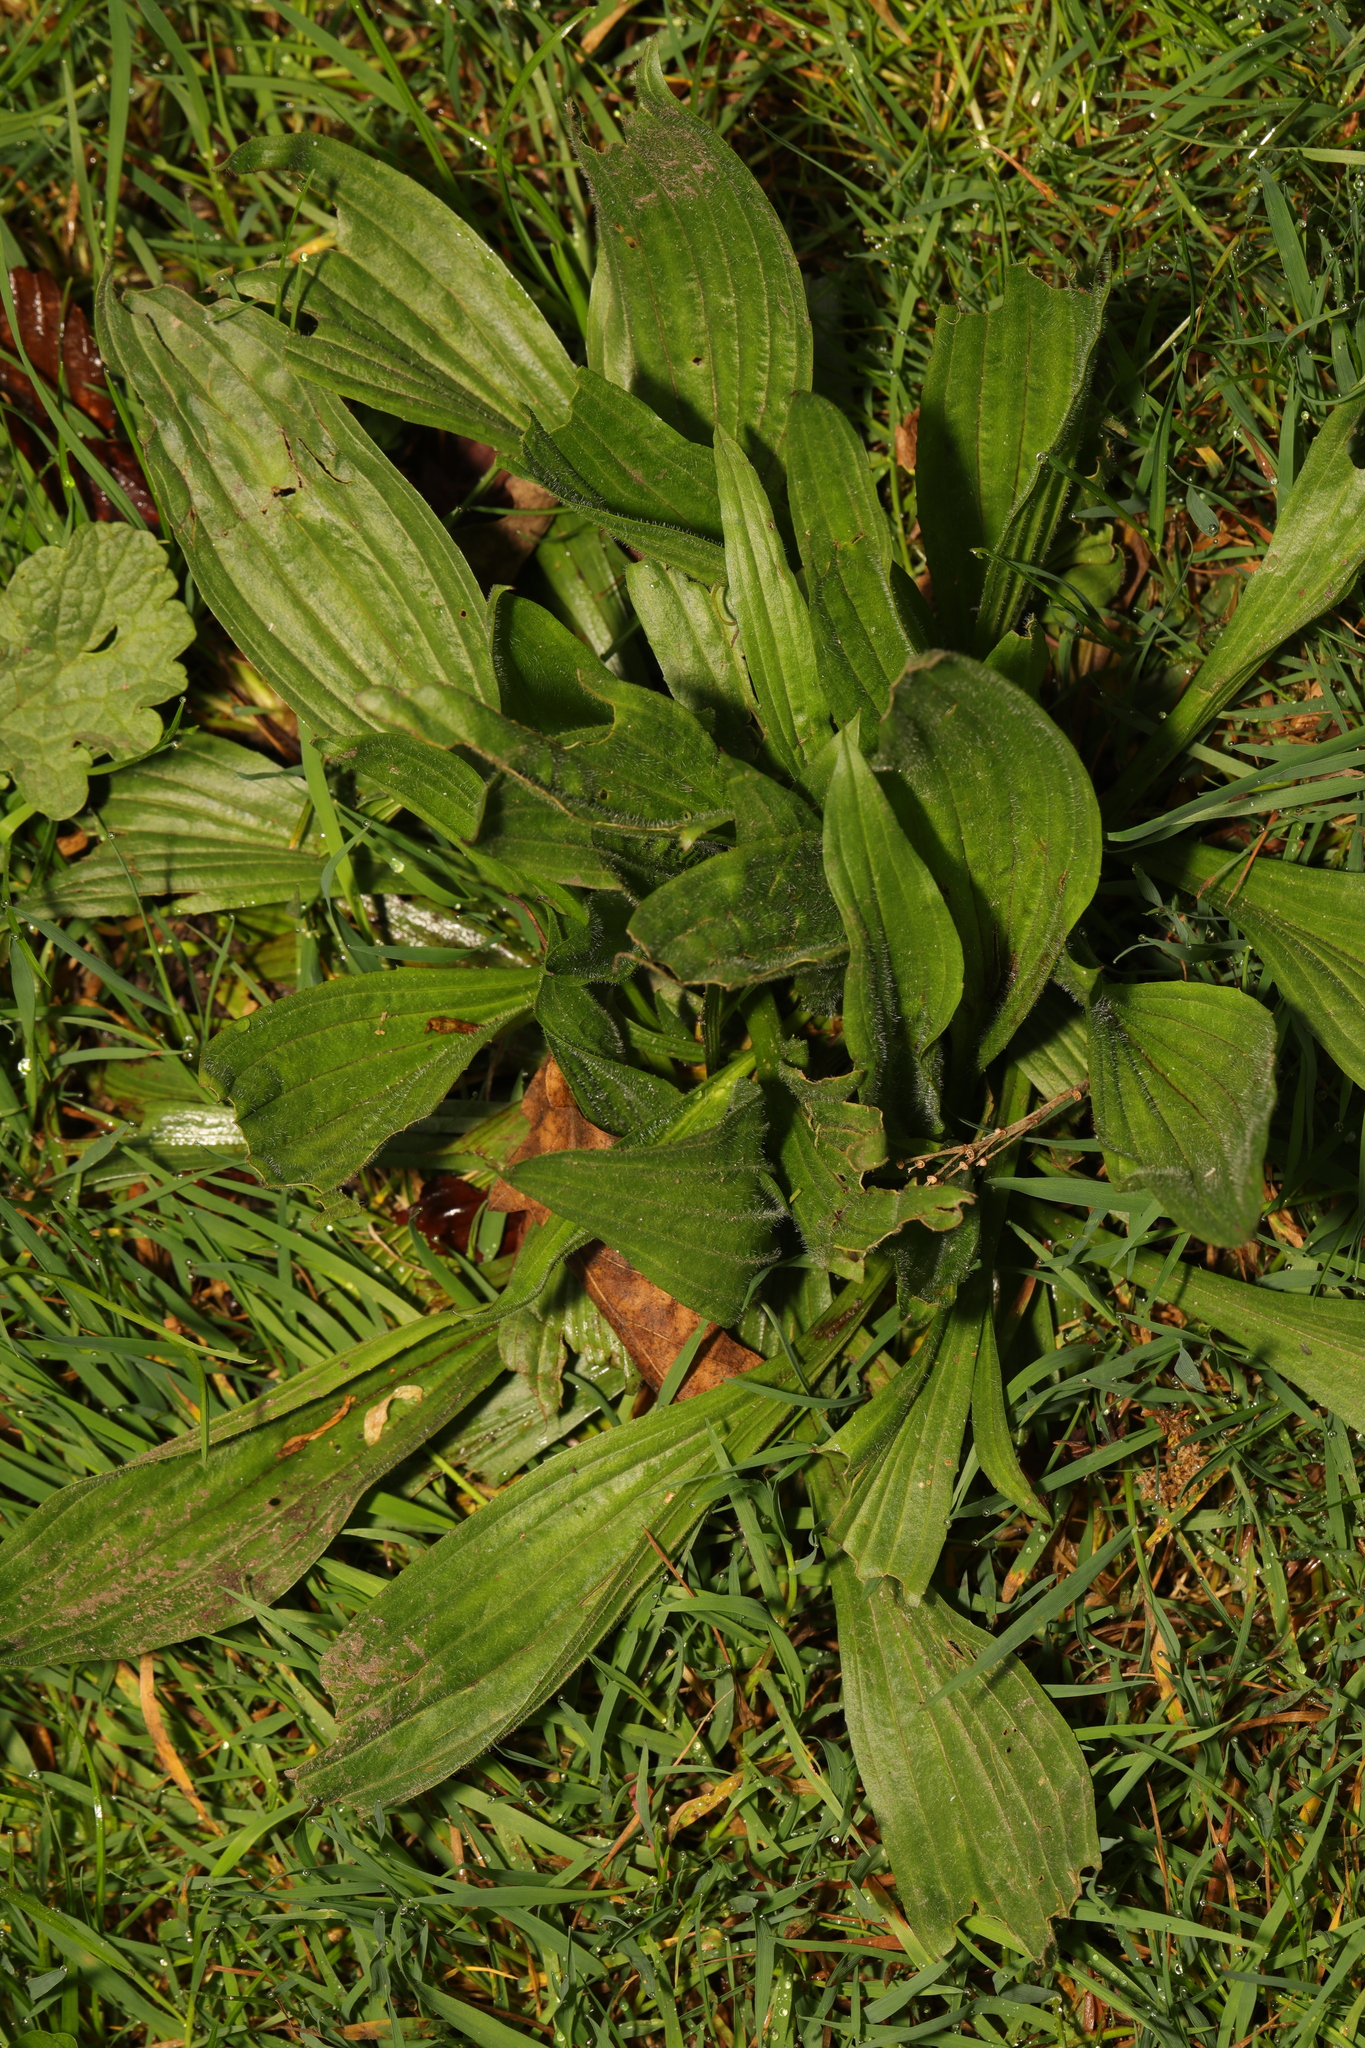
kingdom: Plantae
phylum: Tracheophyta
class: Magnoliopsida
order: Lamiales
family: Plantaginaceae
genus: Plantago
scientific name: Plantago lanceolata
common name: Ribwort plantain
